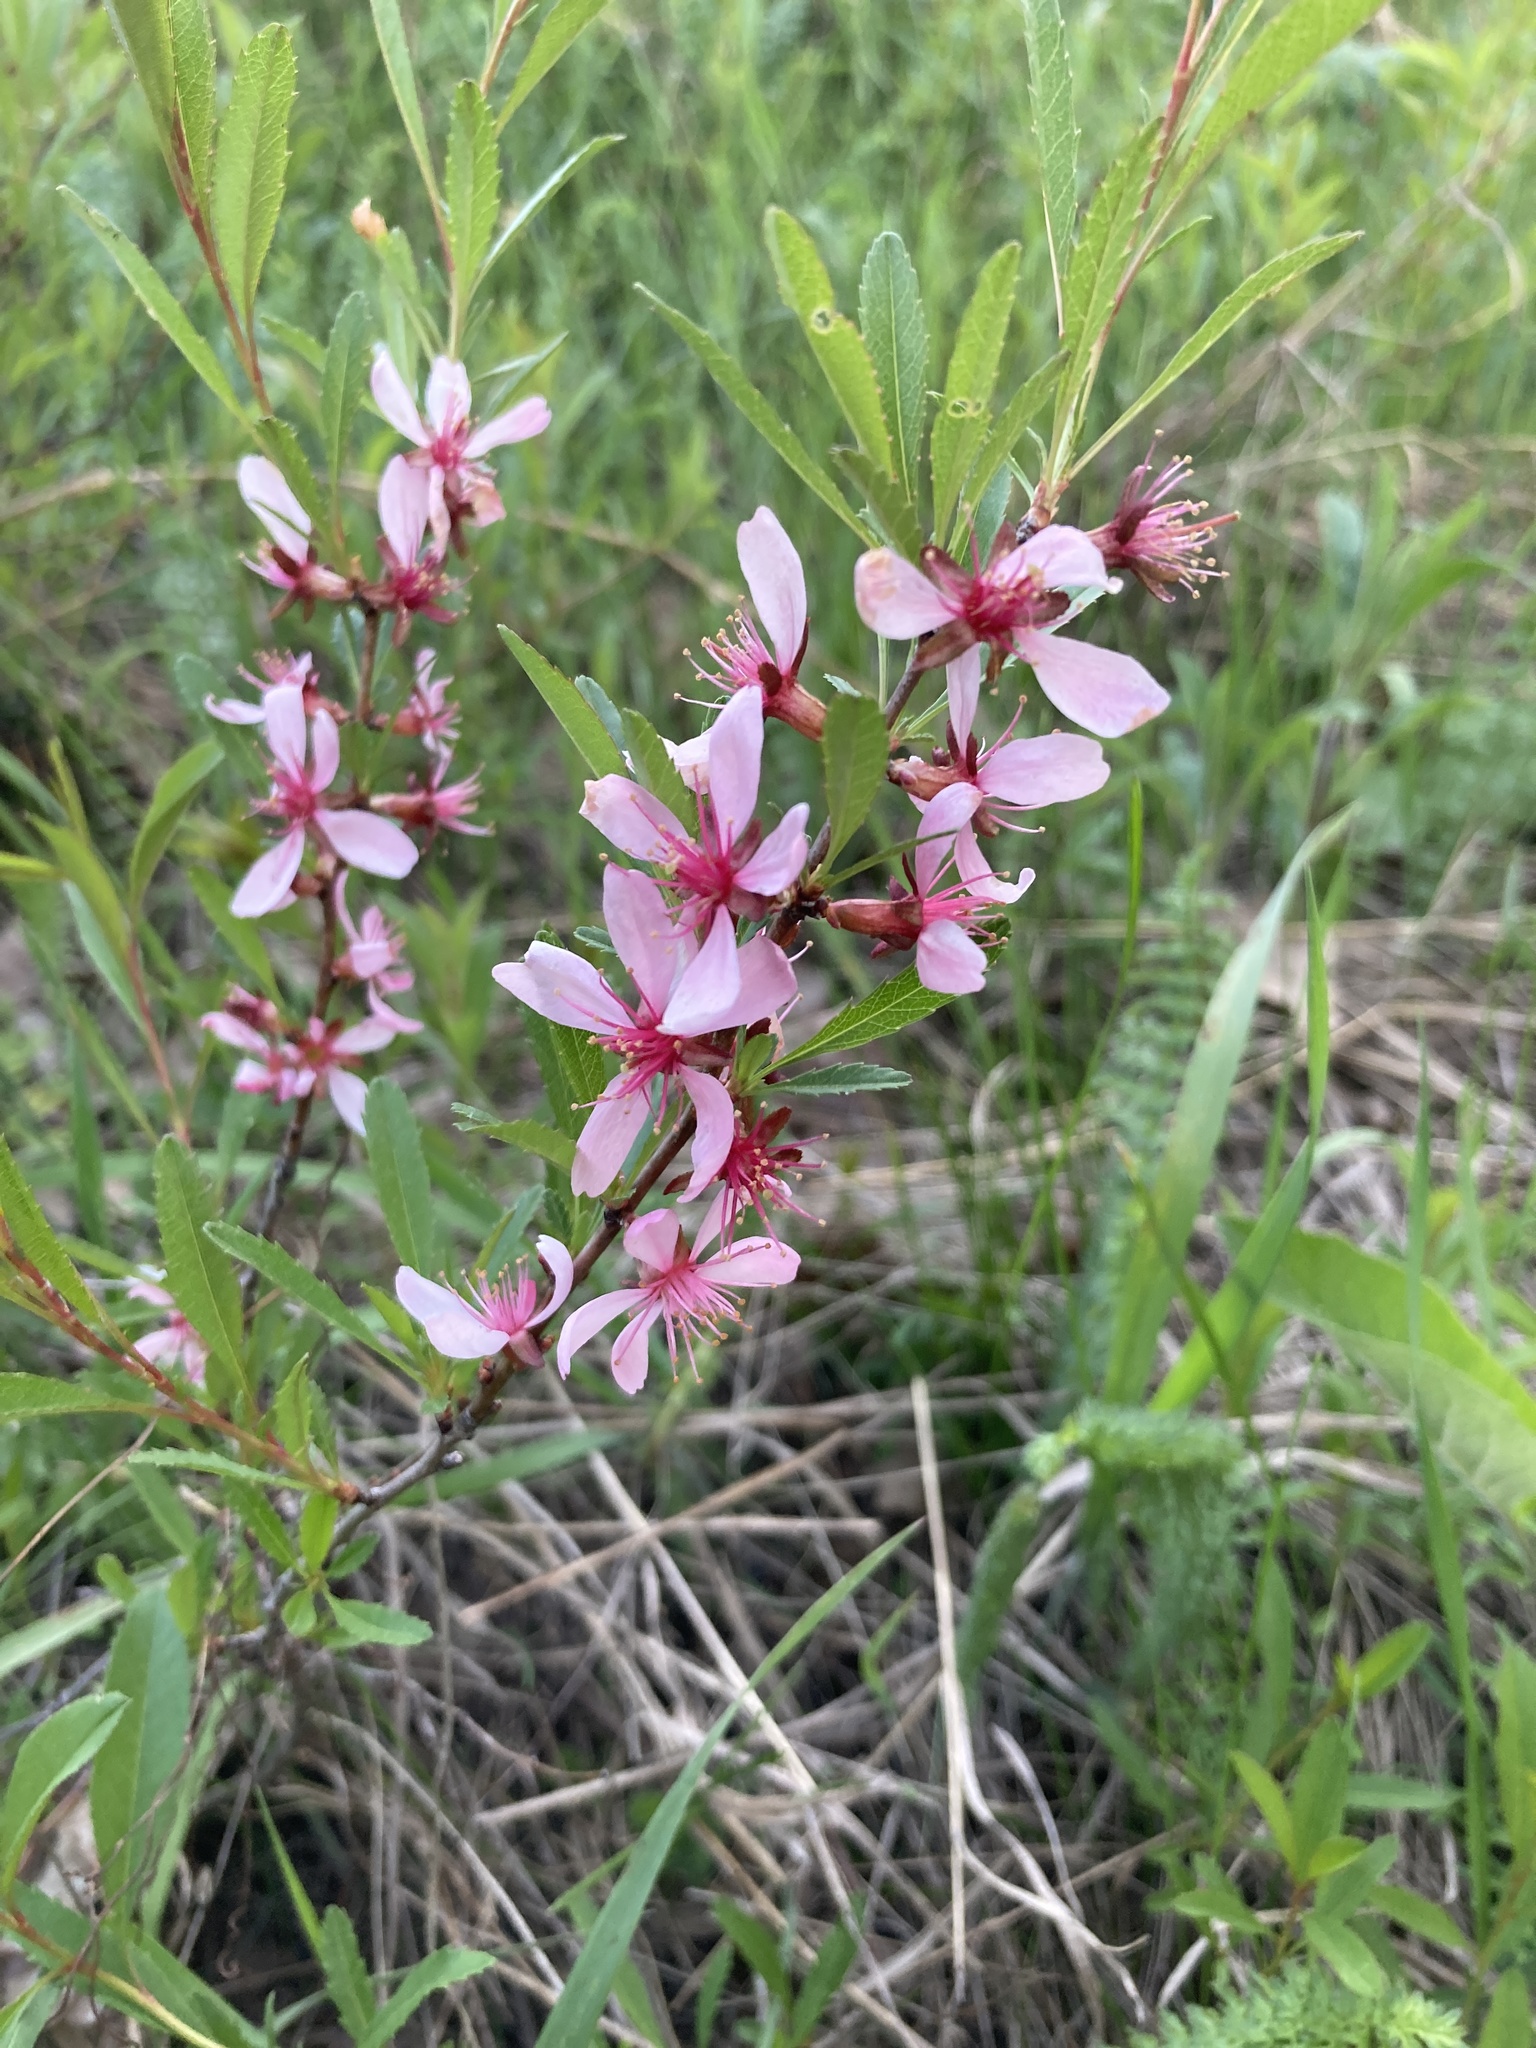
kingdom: Plantae
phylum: Tracheophyta
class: Magnoliopsida
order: Rosales
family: Rosaceae
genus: Prunus
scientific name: Prunus tenella
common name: Dwarf russian almond
